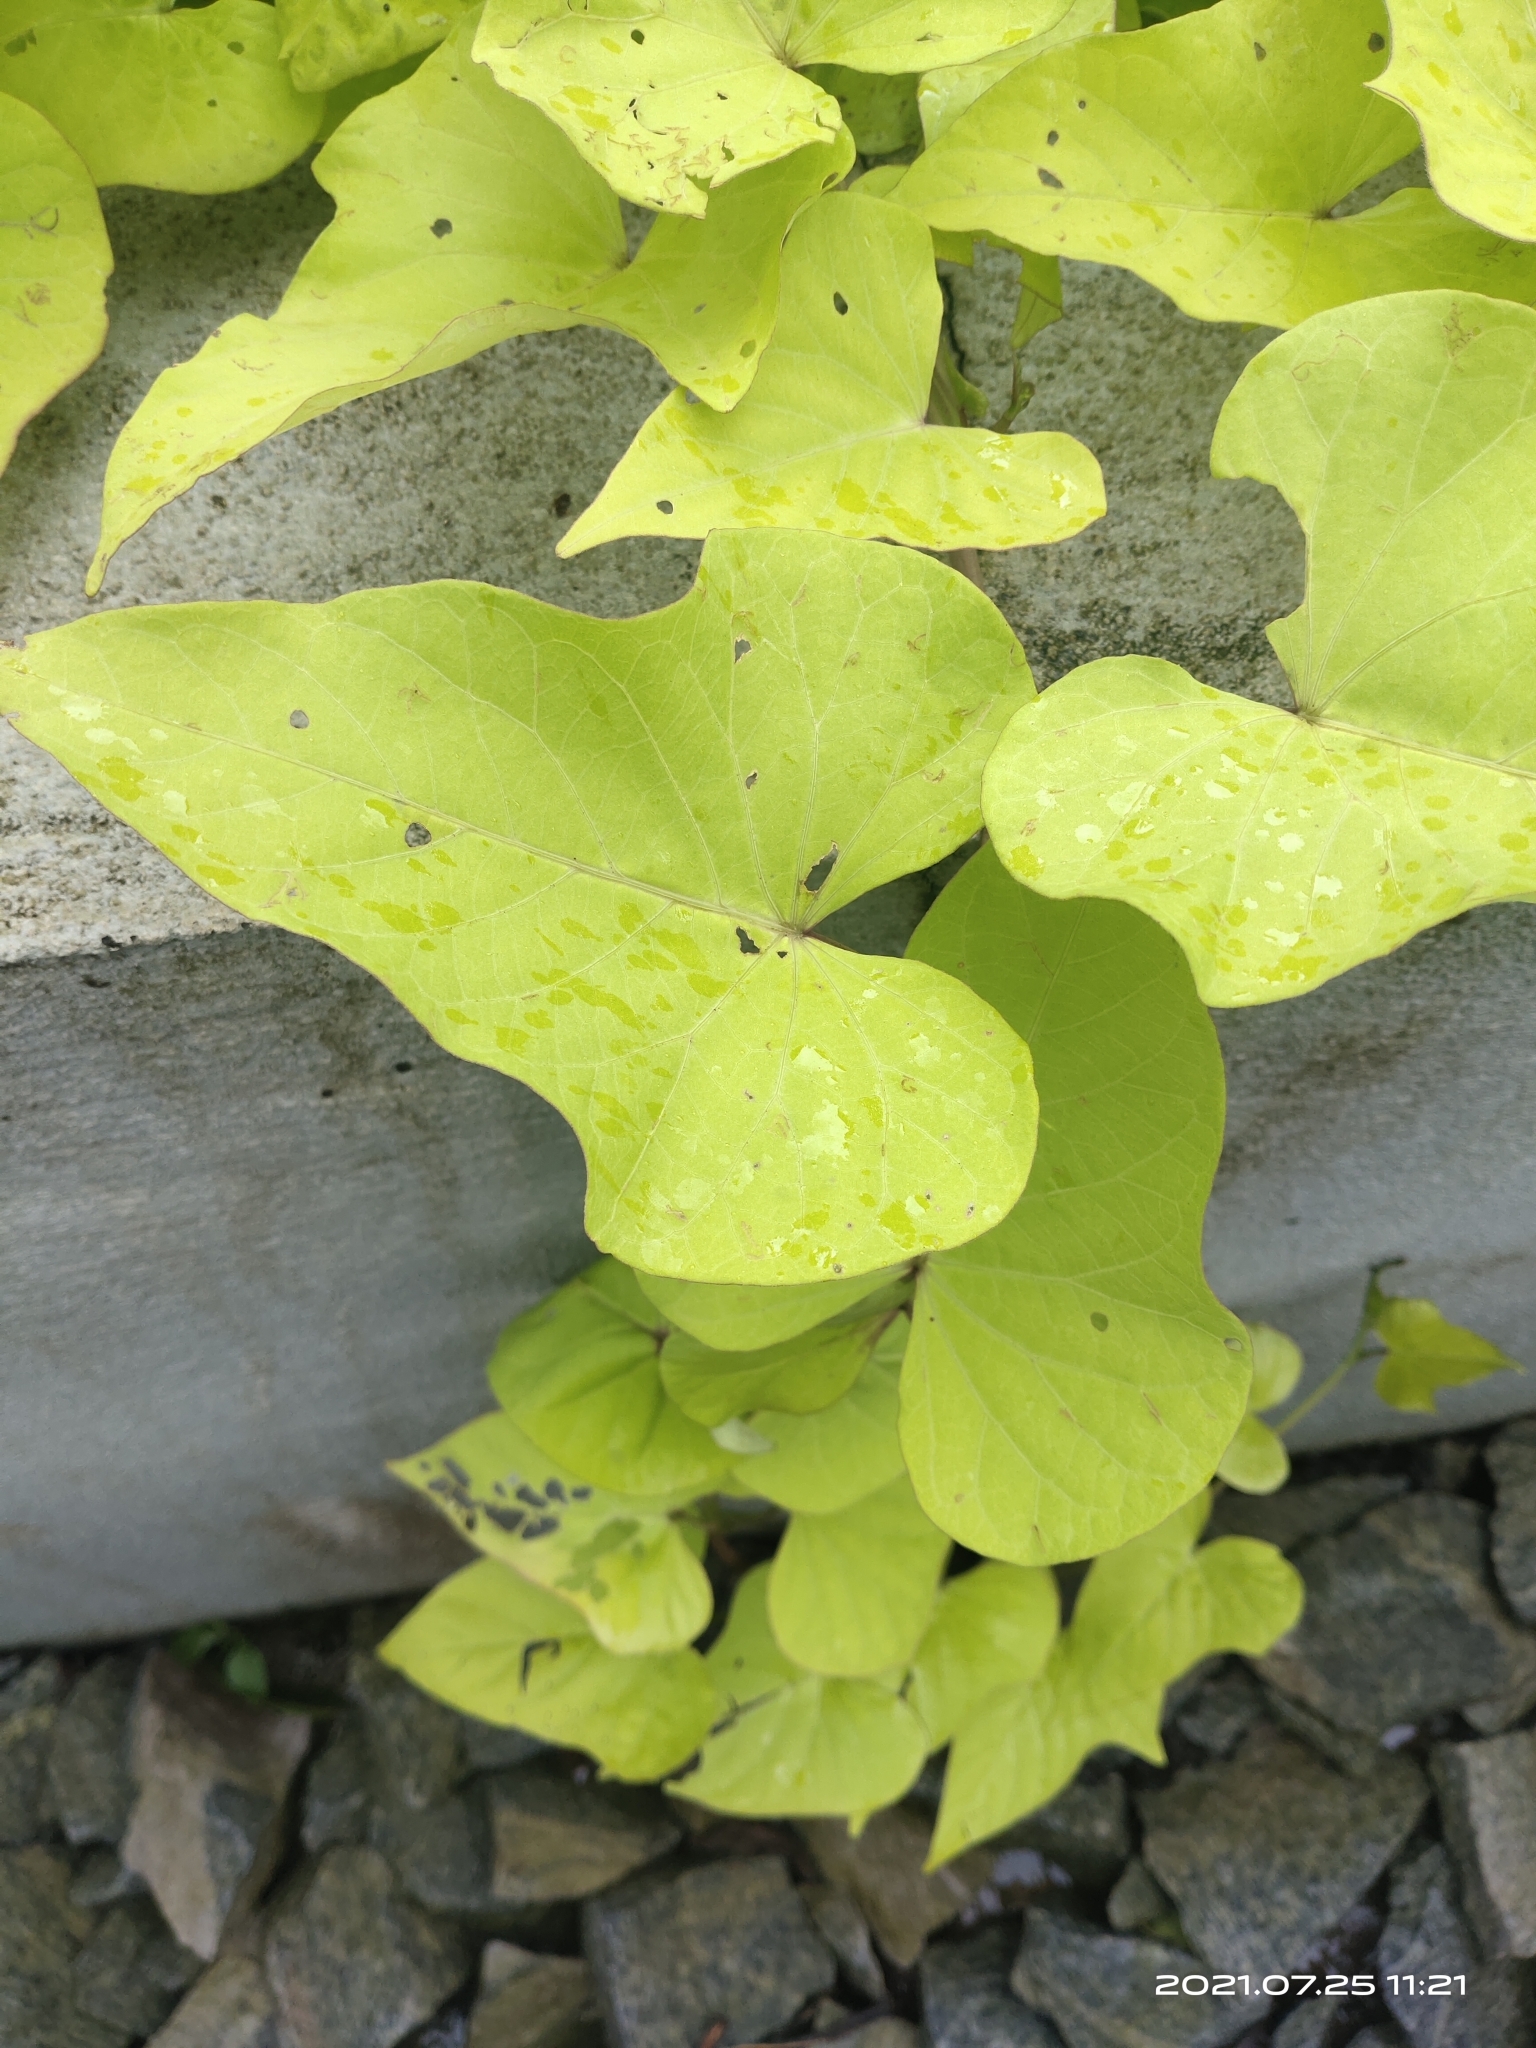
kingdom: Plantae
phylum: Tracheophyta
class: Magnoliopsida
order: Solanales
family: Convolvulaceae
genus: Ipomoea
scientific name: Ipomoea batatas
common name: Sweet-potato
